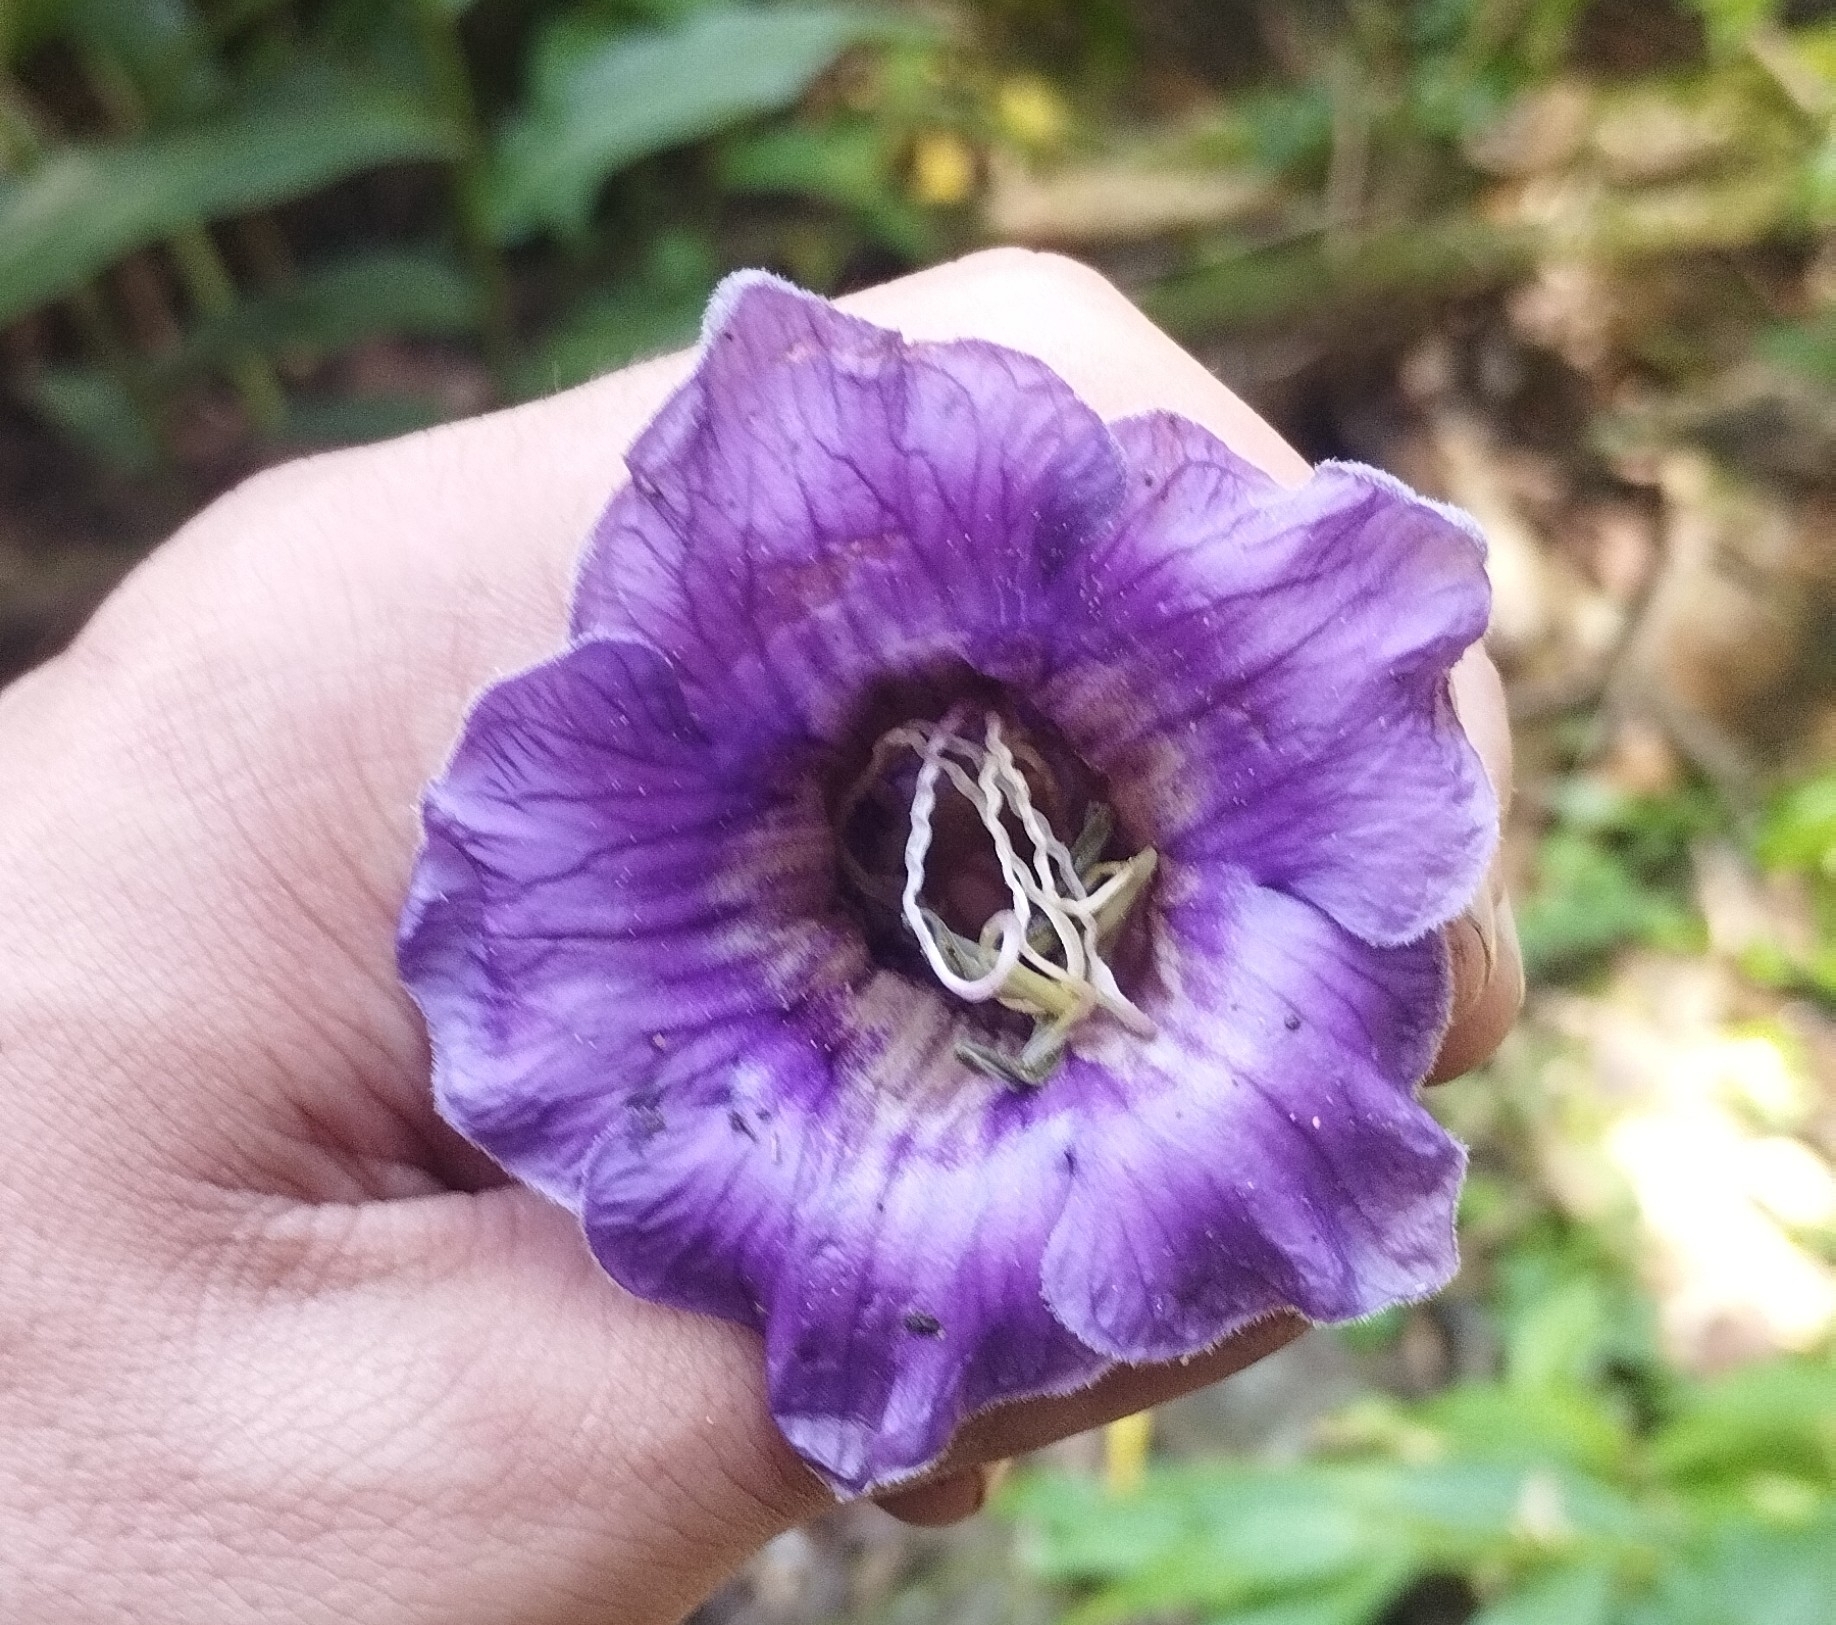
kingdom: Plantae
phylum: Tracheophyta
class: Magnoliopsida
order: Ericales
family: Polemoniaceae
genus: Cobaea
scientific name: Cobaea scandens
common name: Cup-and-saucer-vine
